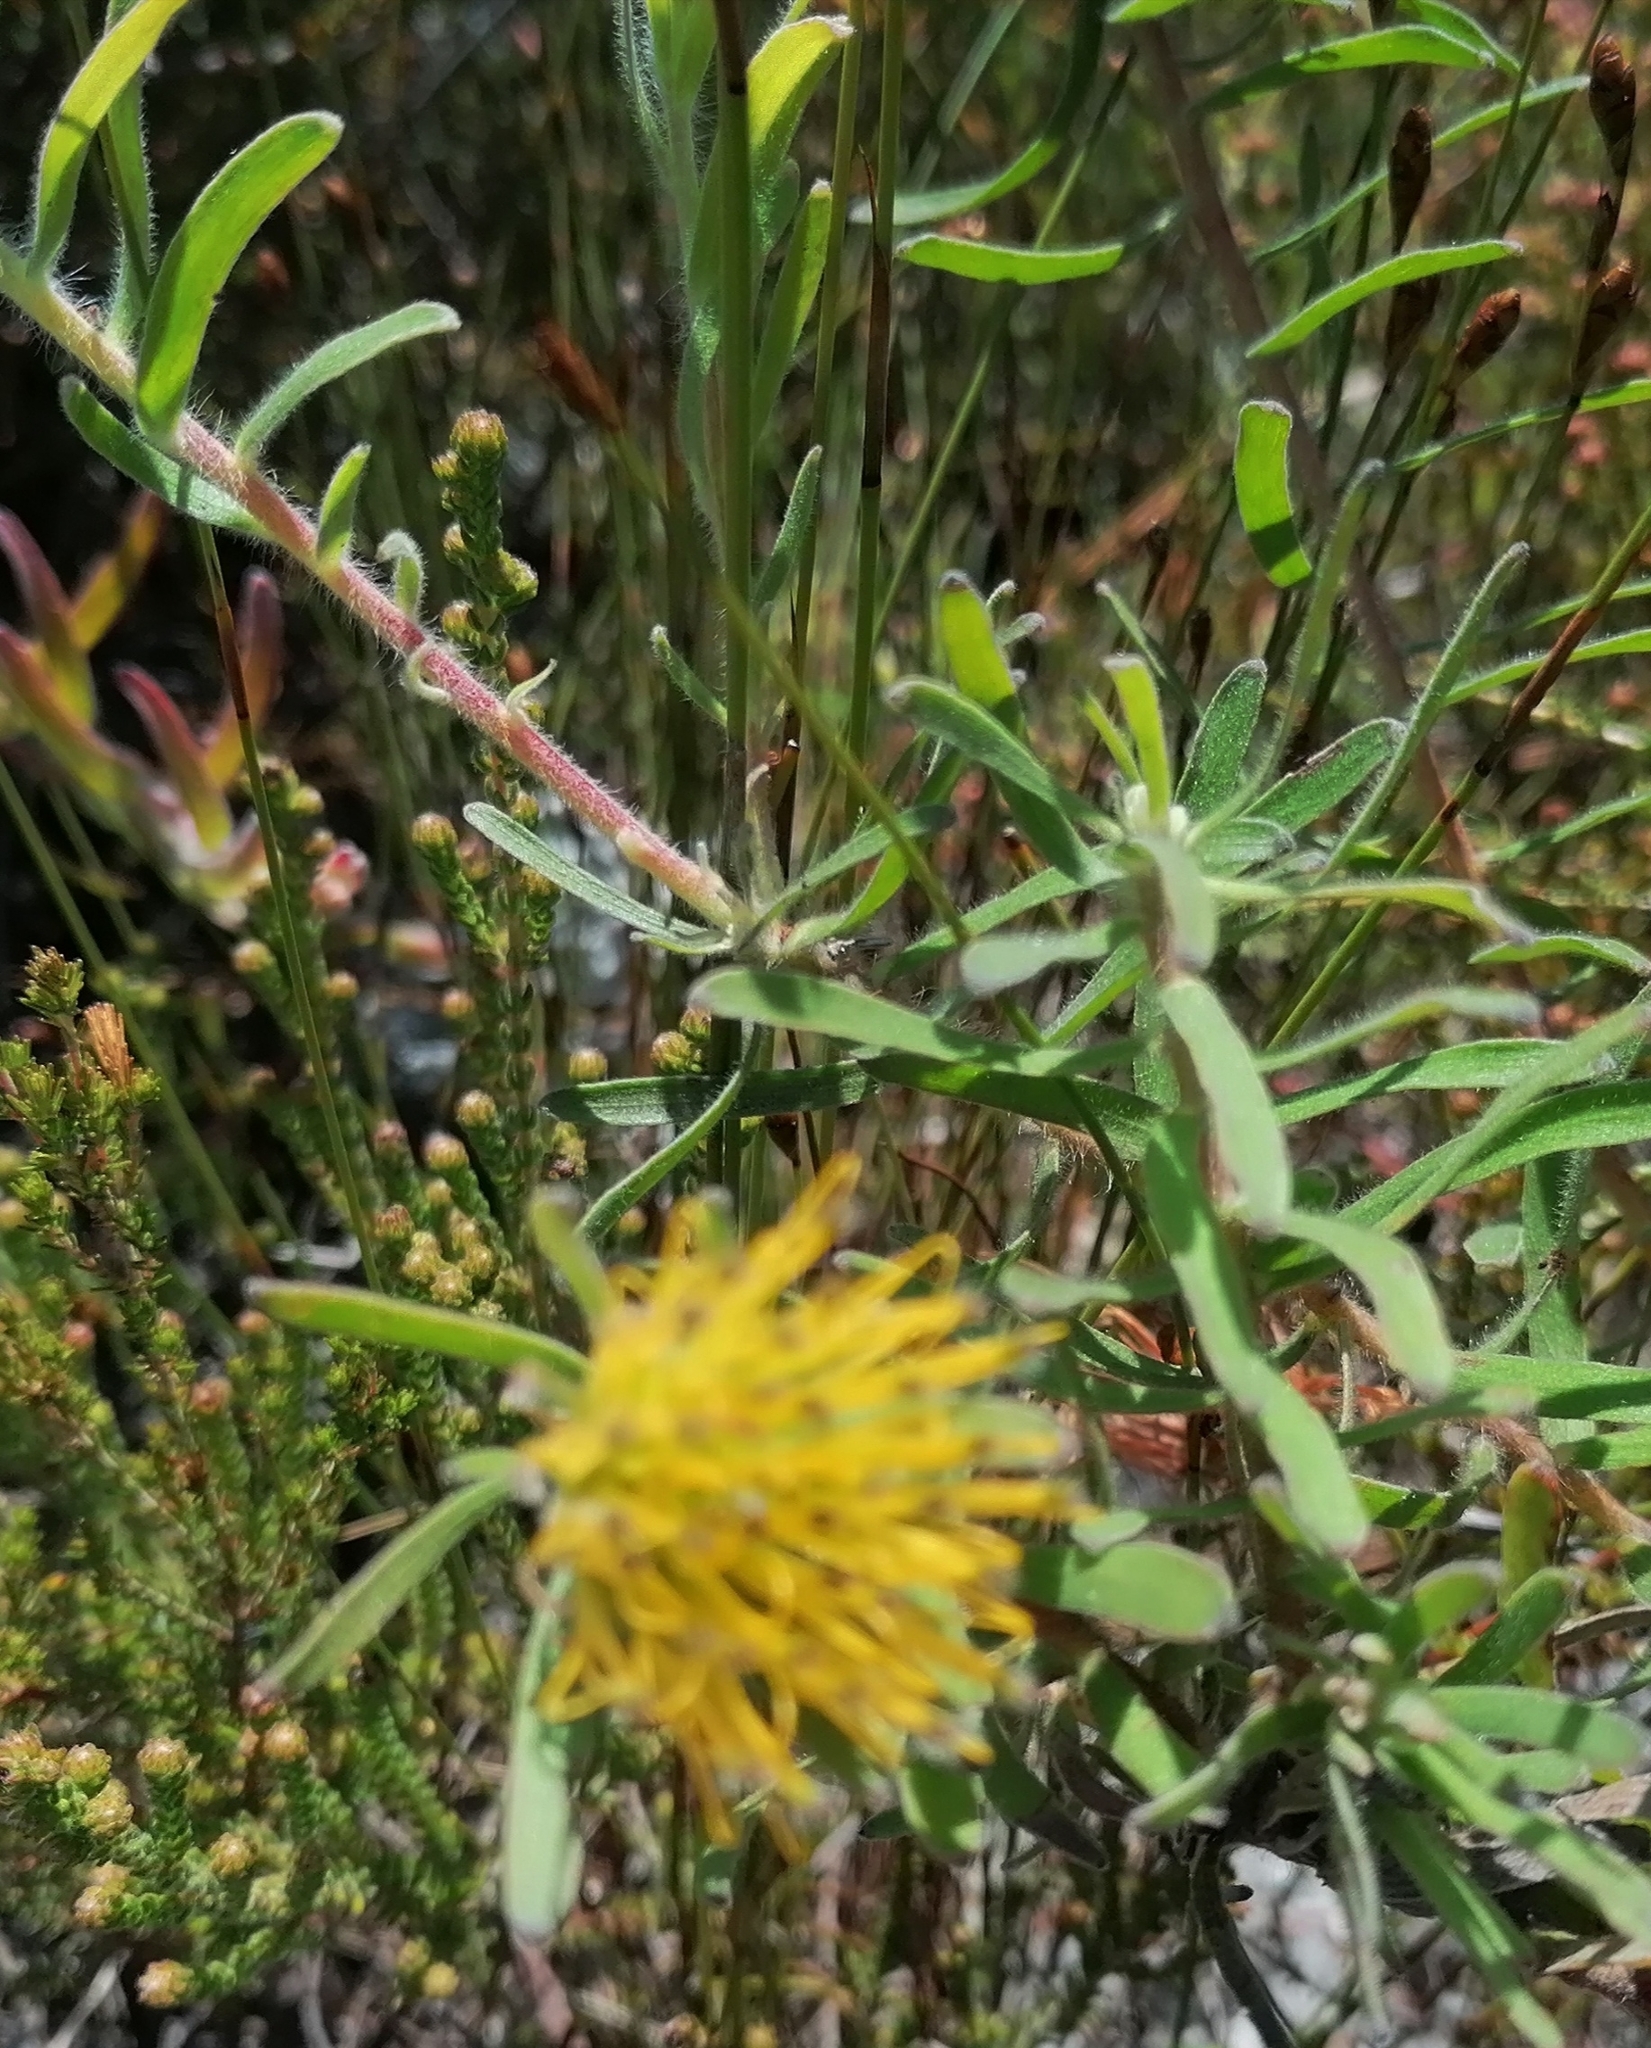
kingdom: Plantae
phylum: Tracheophyta
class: Magnoliopsida
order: Proteales
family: Proteaceae
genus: Leucospermum
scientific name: Leucospermum gracile
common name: Hermanus pincushion
